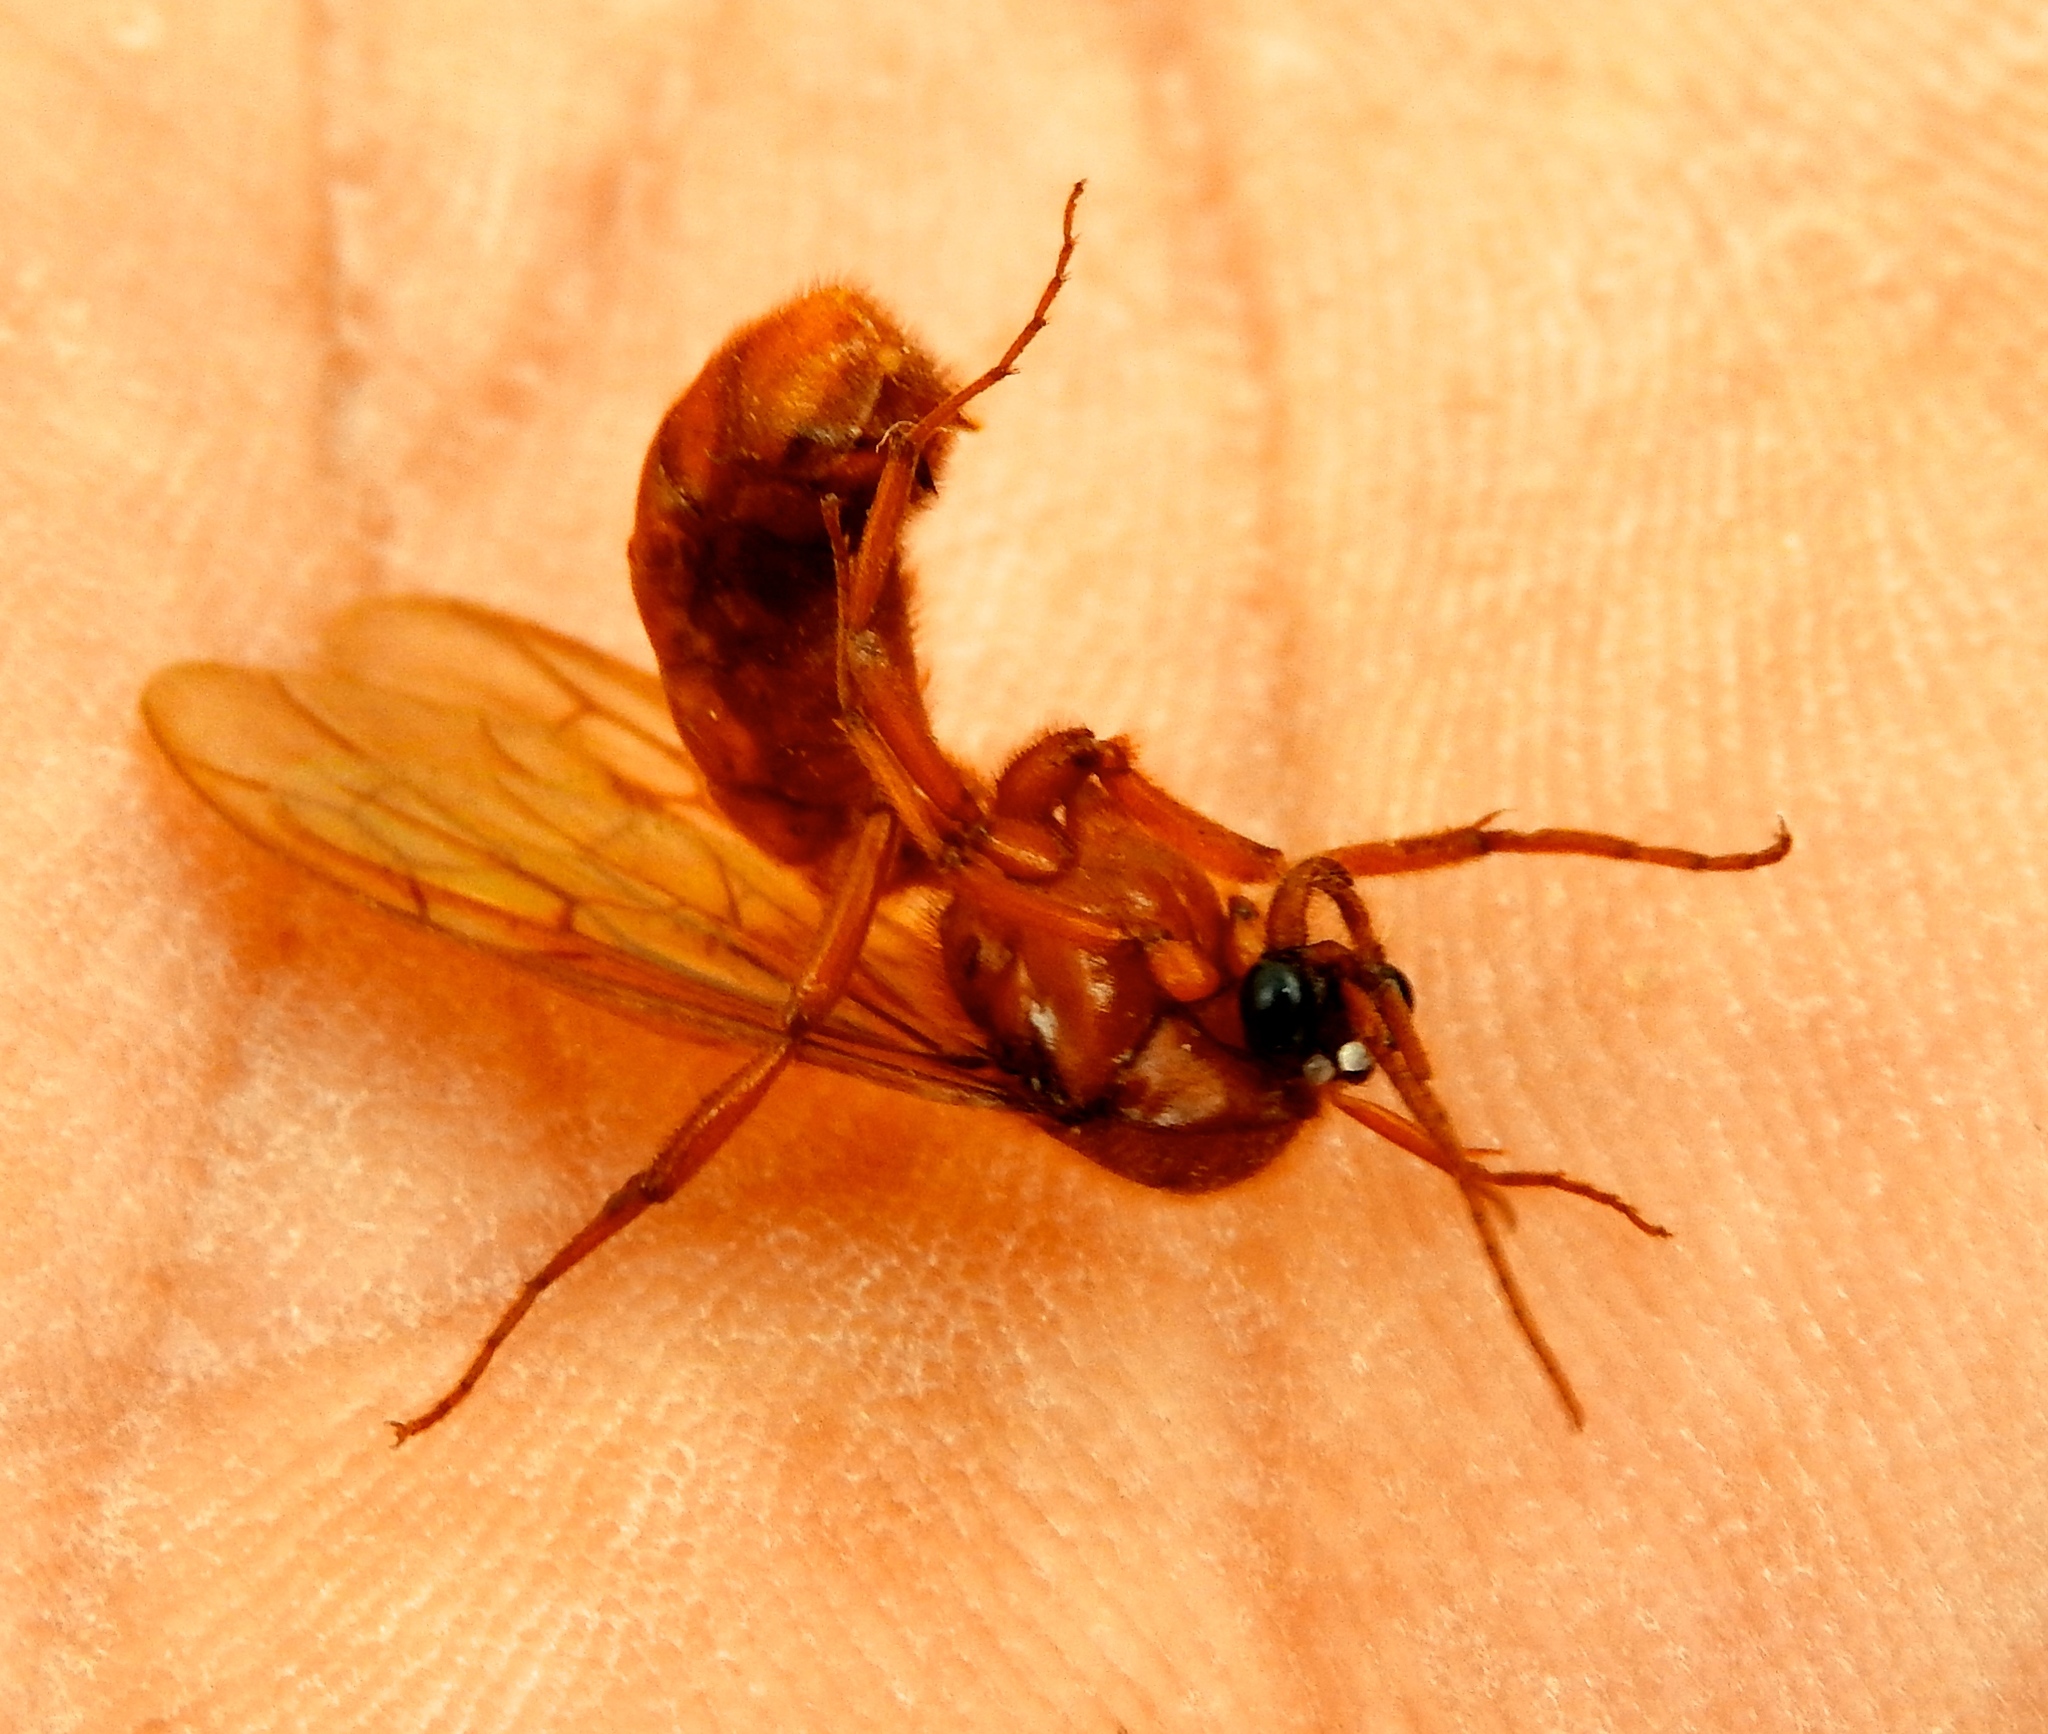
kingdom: Animalia
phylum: Arthropoda
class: Insecta
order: Hymenoptera
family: Formicidae
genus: Labidus
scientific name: Labidus coecus
